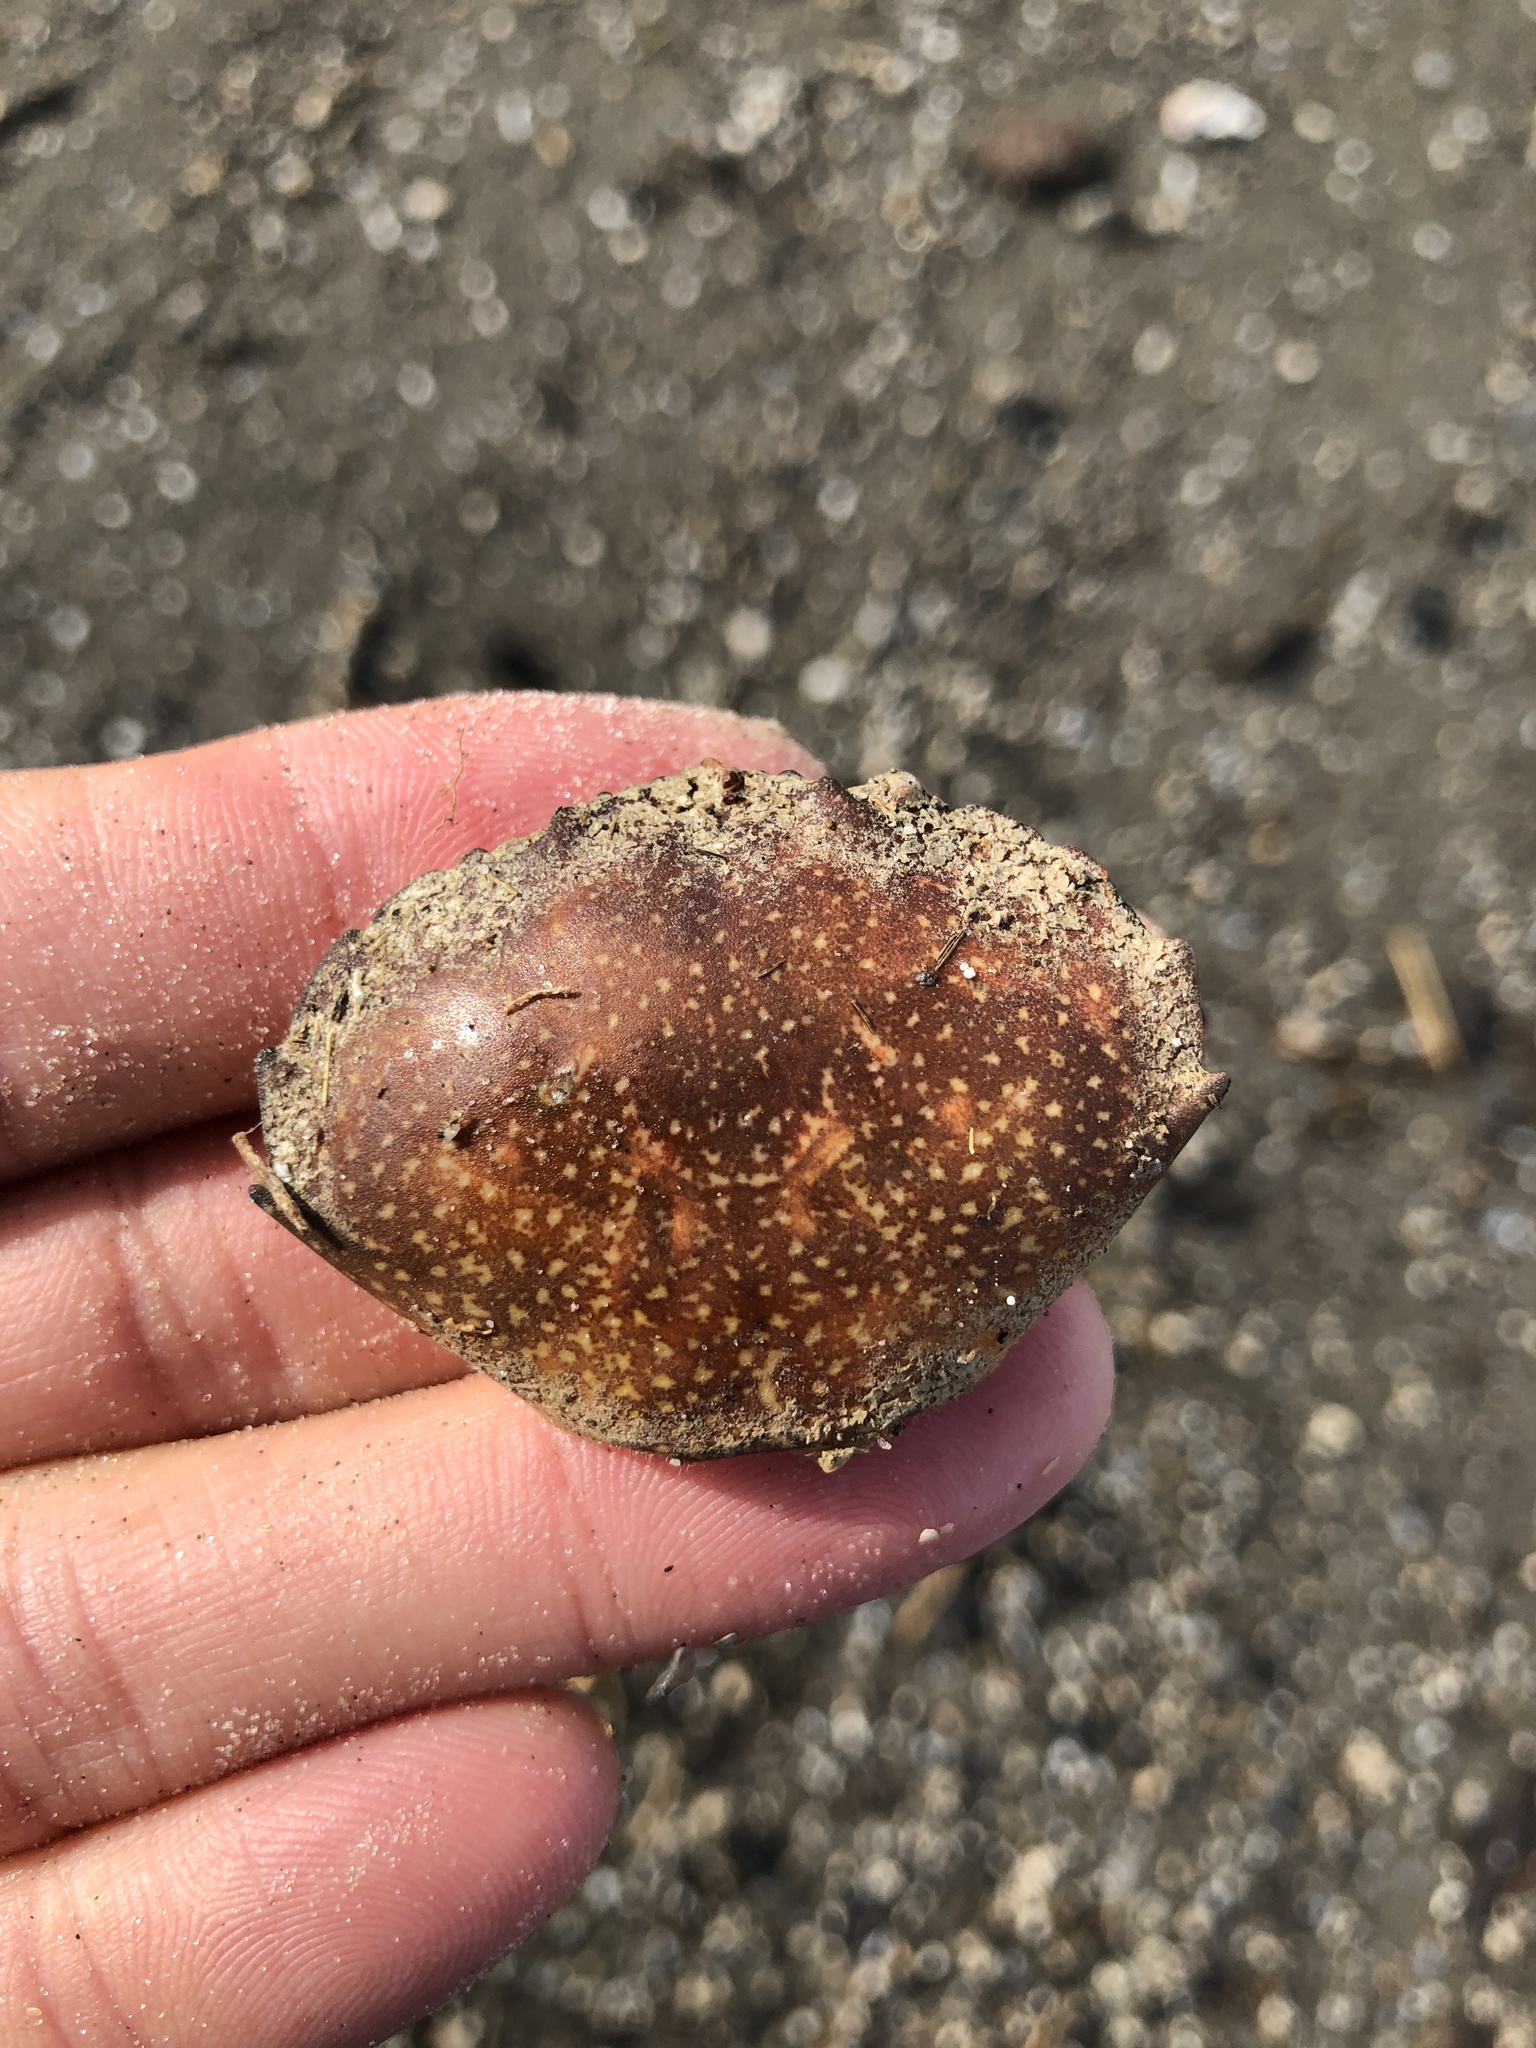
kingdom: Animalia
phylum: Arthropoda
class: Malacostraca
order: Decapoda
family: Menippidae
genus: Menippe
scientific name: Menippe adina
